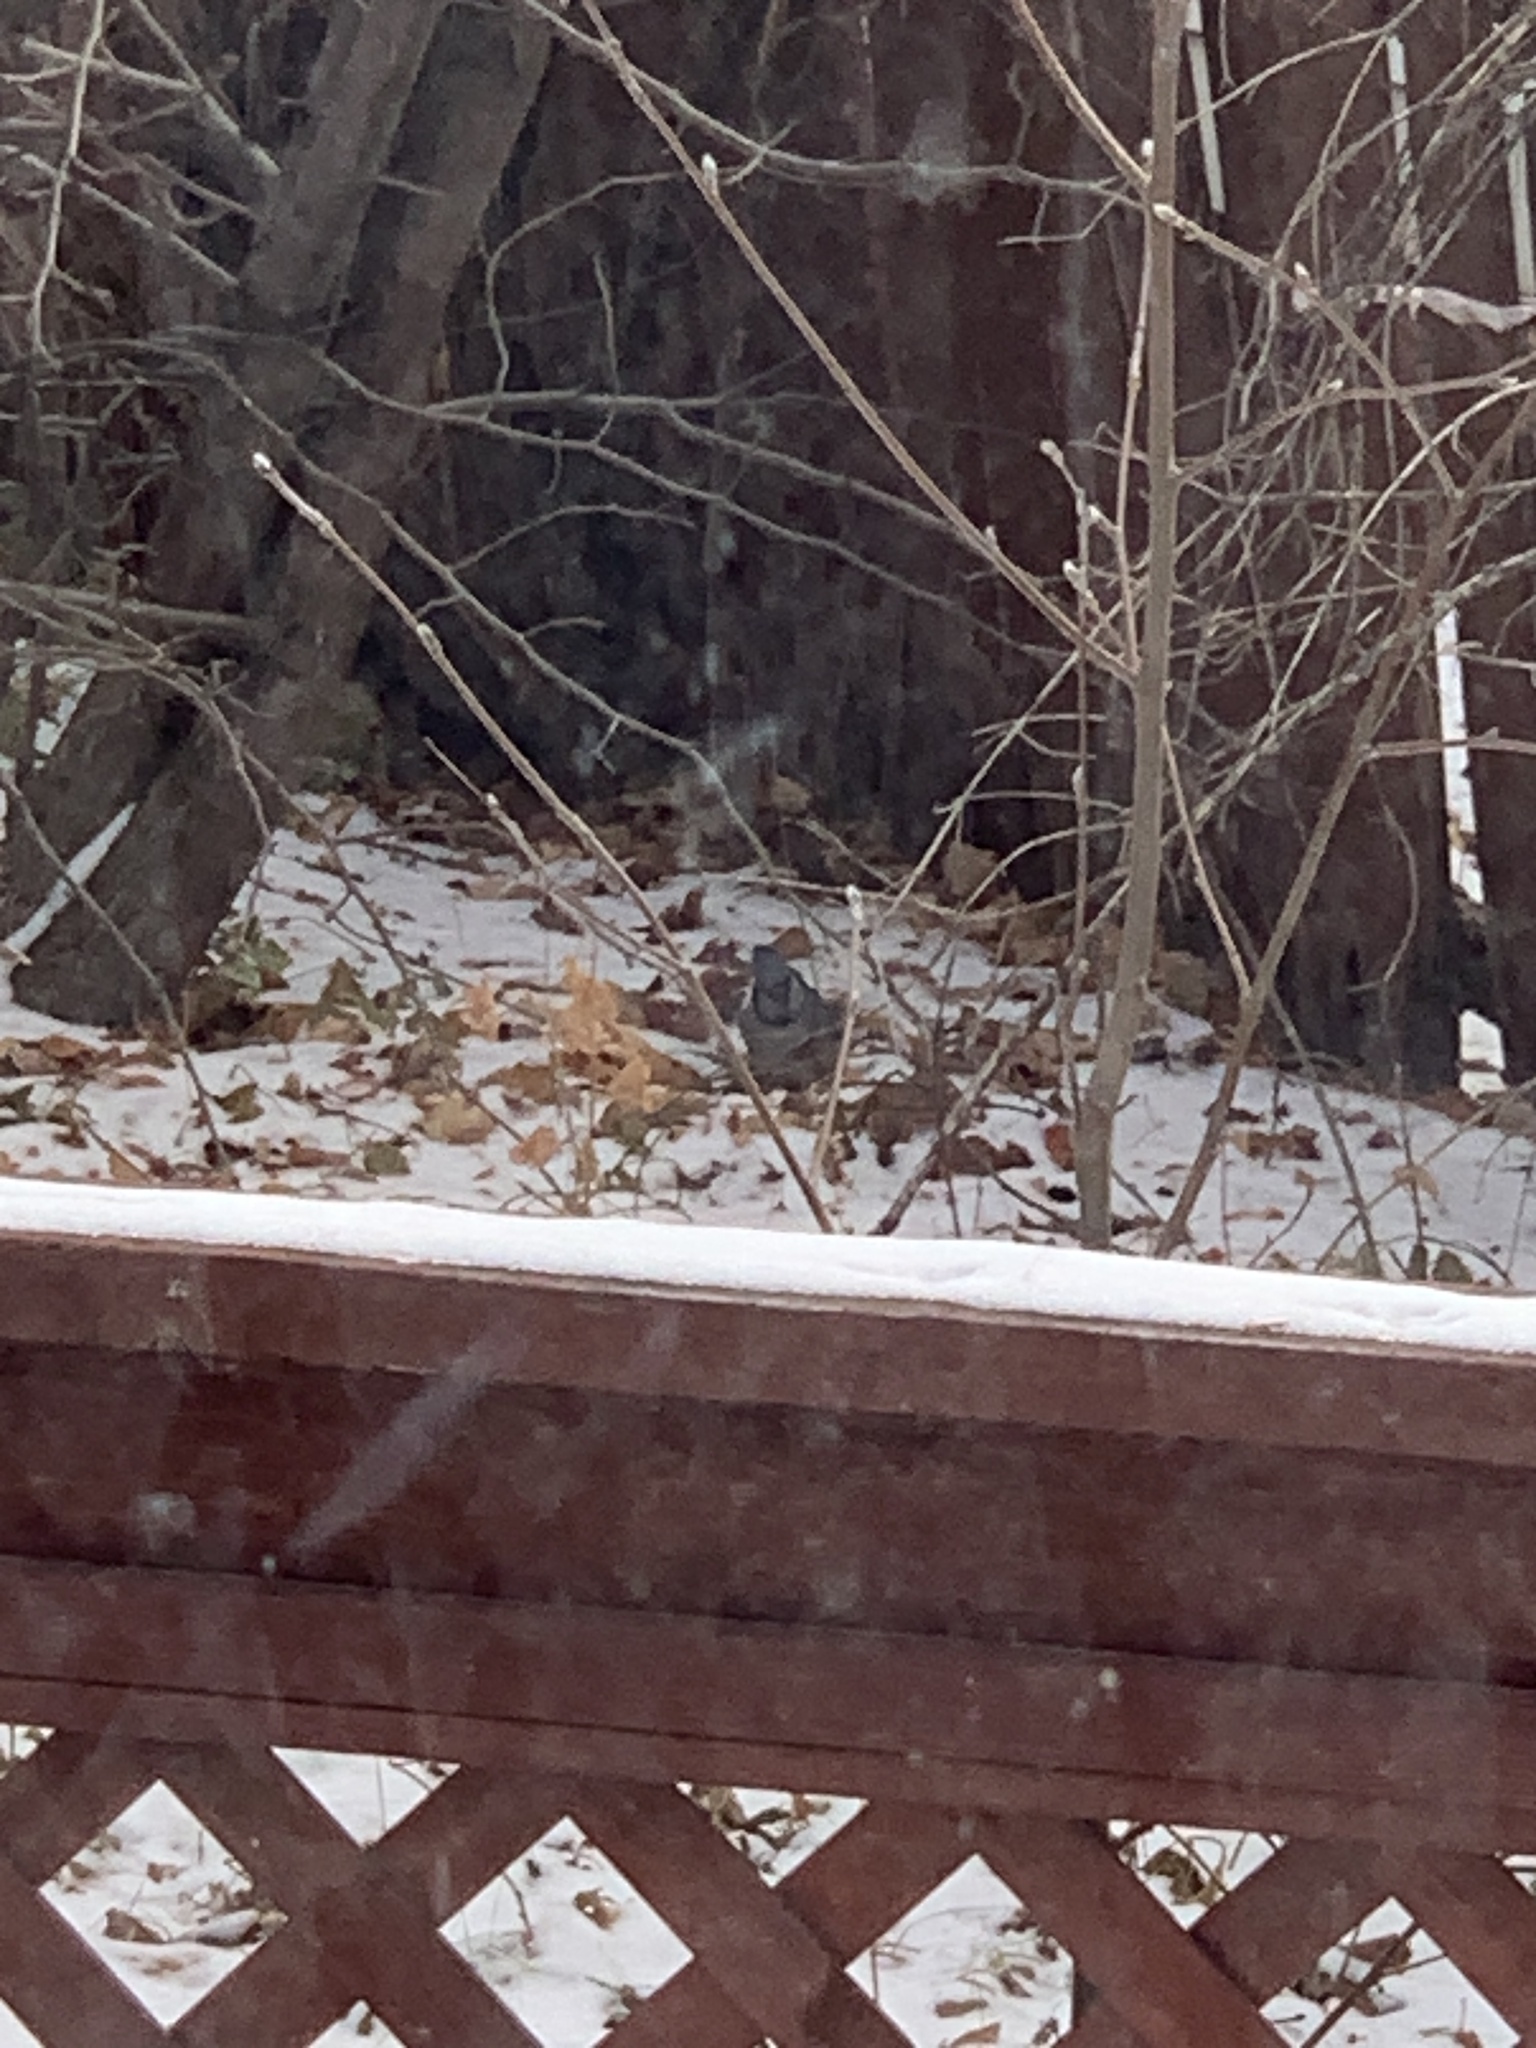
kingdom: Animalia
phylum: Chordata
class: Aves
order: Passeriformes
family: Corvidae
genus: Cyanocitta
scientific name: Cyanocitta cristata
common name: Blue jay
